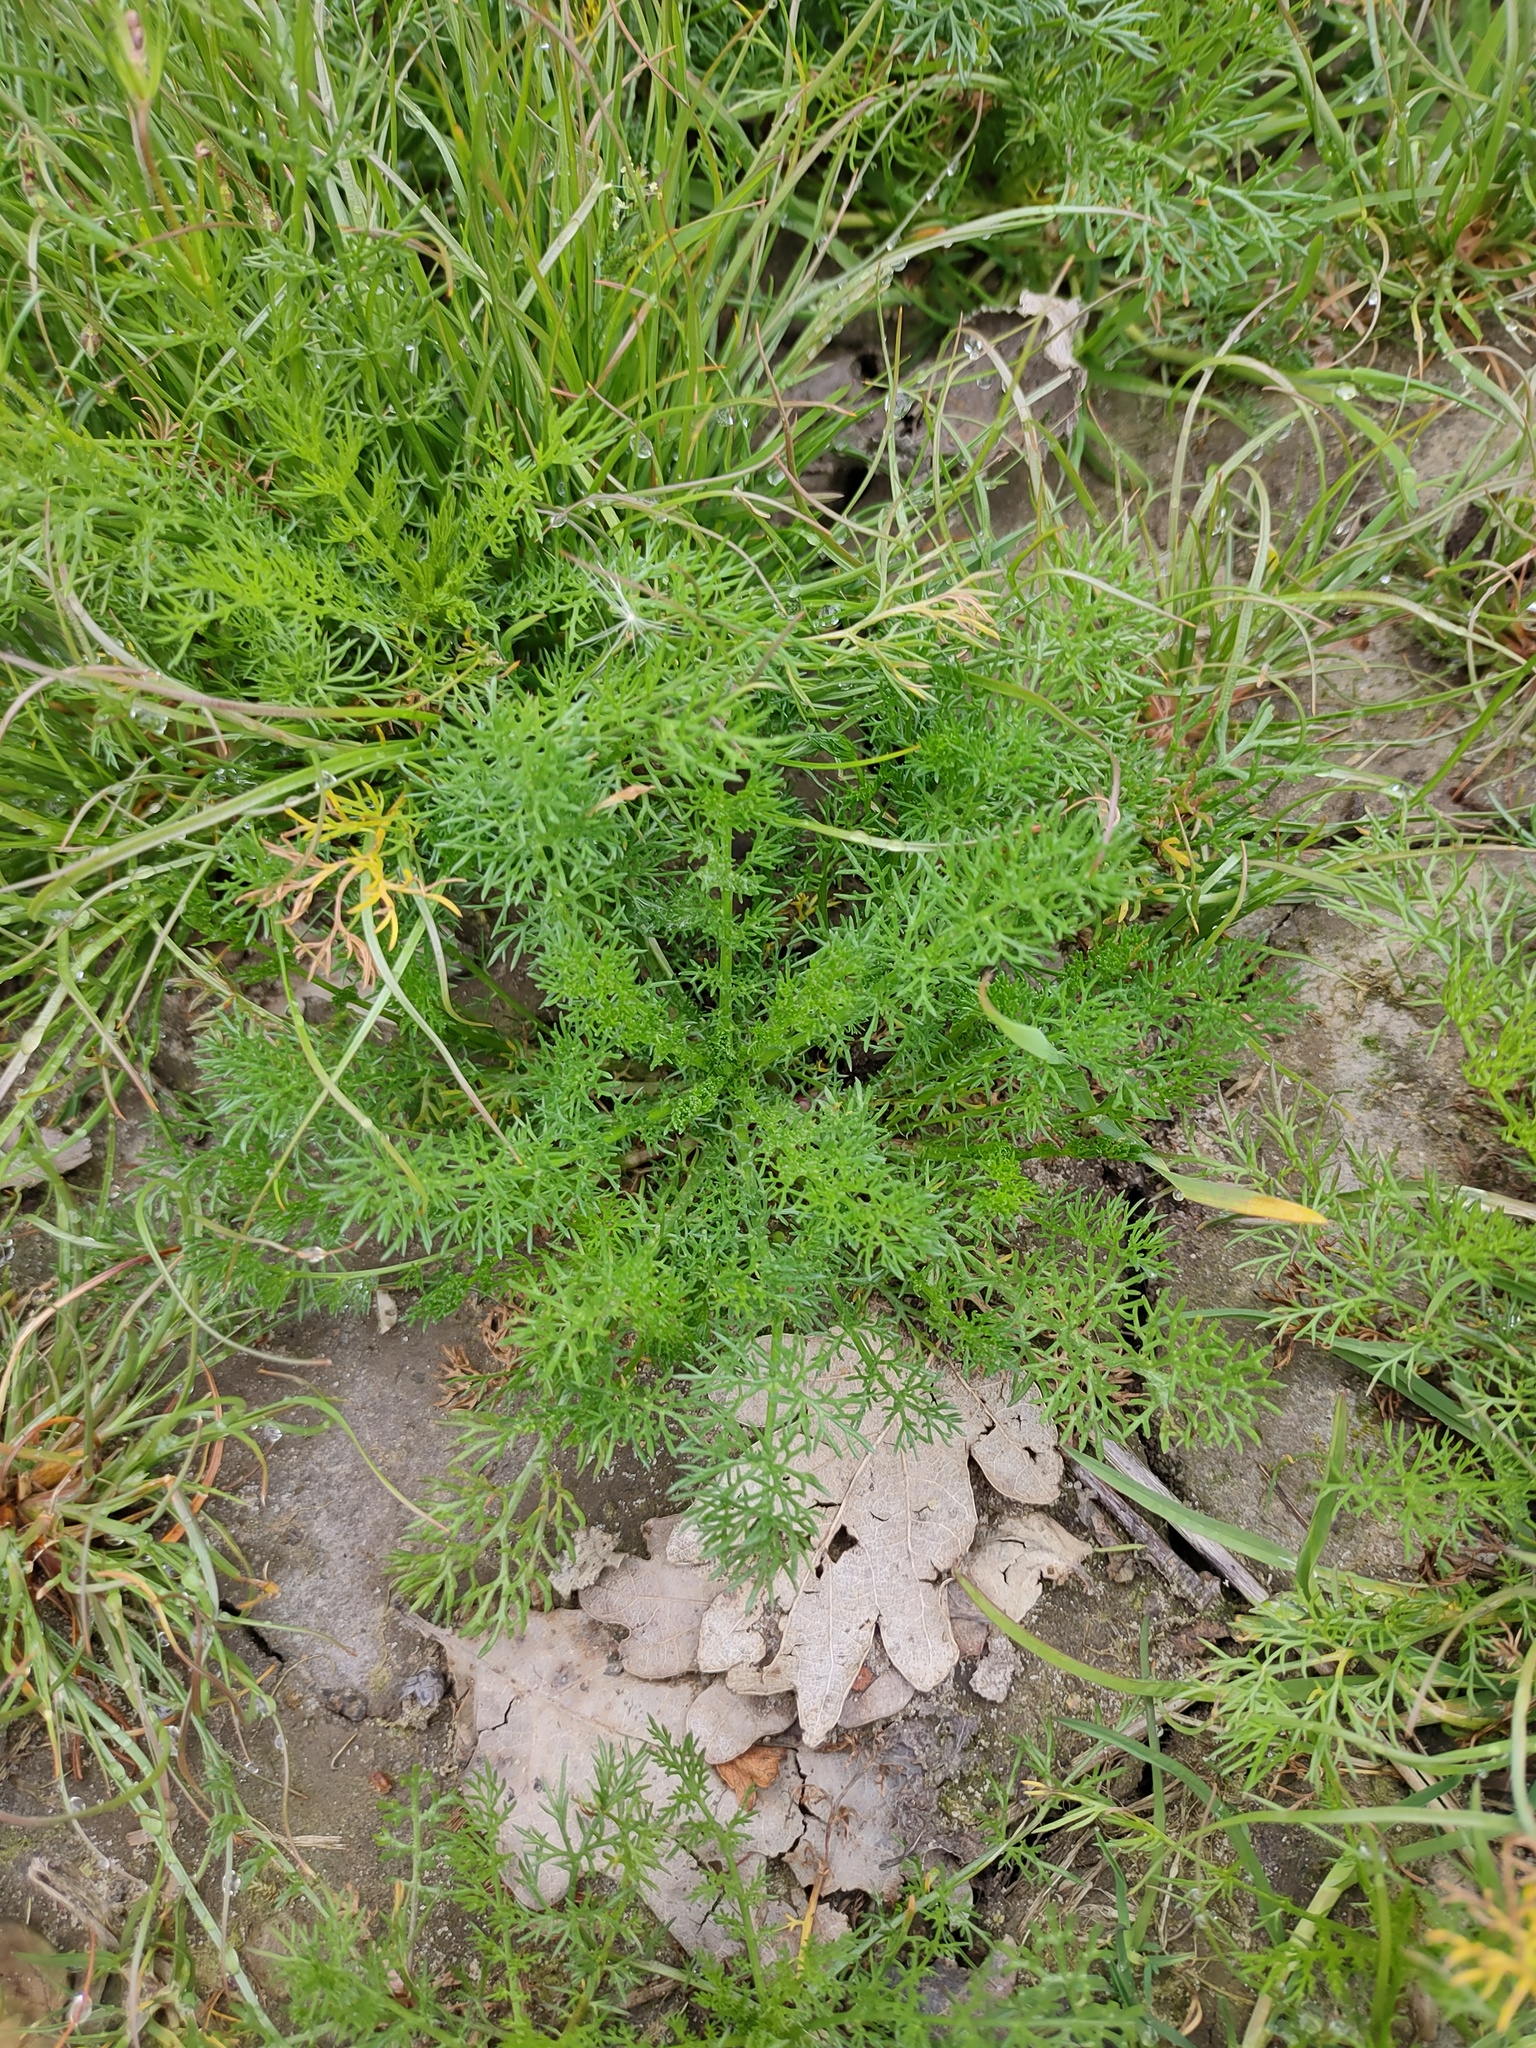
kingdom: Plantae
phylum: Tracheophyta
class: Magnoliopsida
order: Asterales
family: Asteraceae
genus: Tripleurospermum
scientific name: Tripleurospermum inodorum
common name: Scentless mayweed
